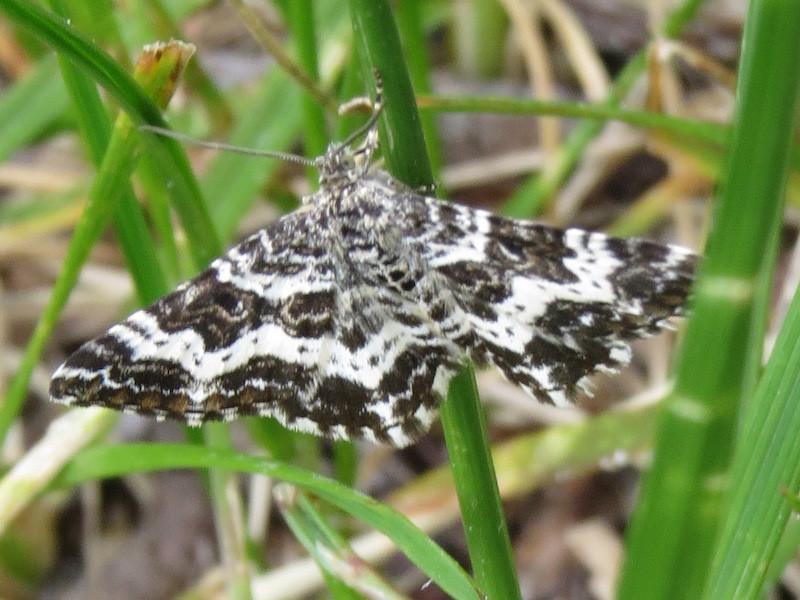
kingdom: Animalia
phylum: Arthropoda
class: Insecta
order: Lepidoptera
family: Geometridae
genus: Epirrhoe
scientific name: Epirrhoe tristata
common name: Small argent & sable
